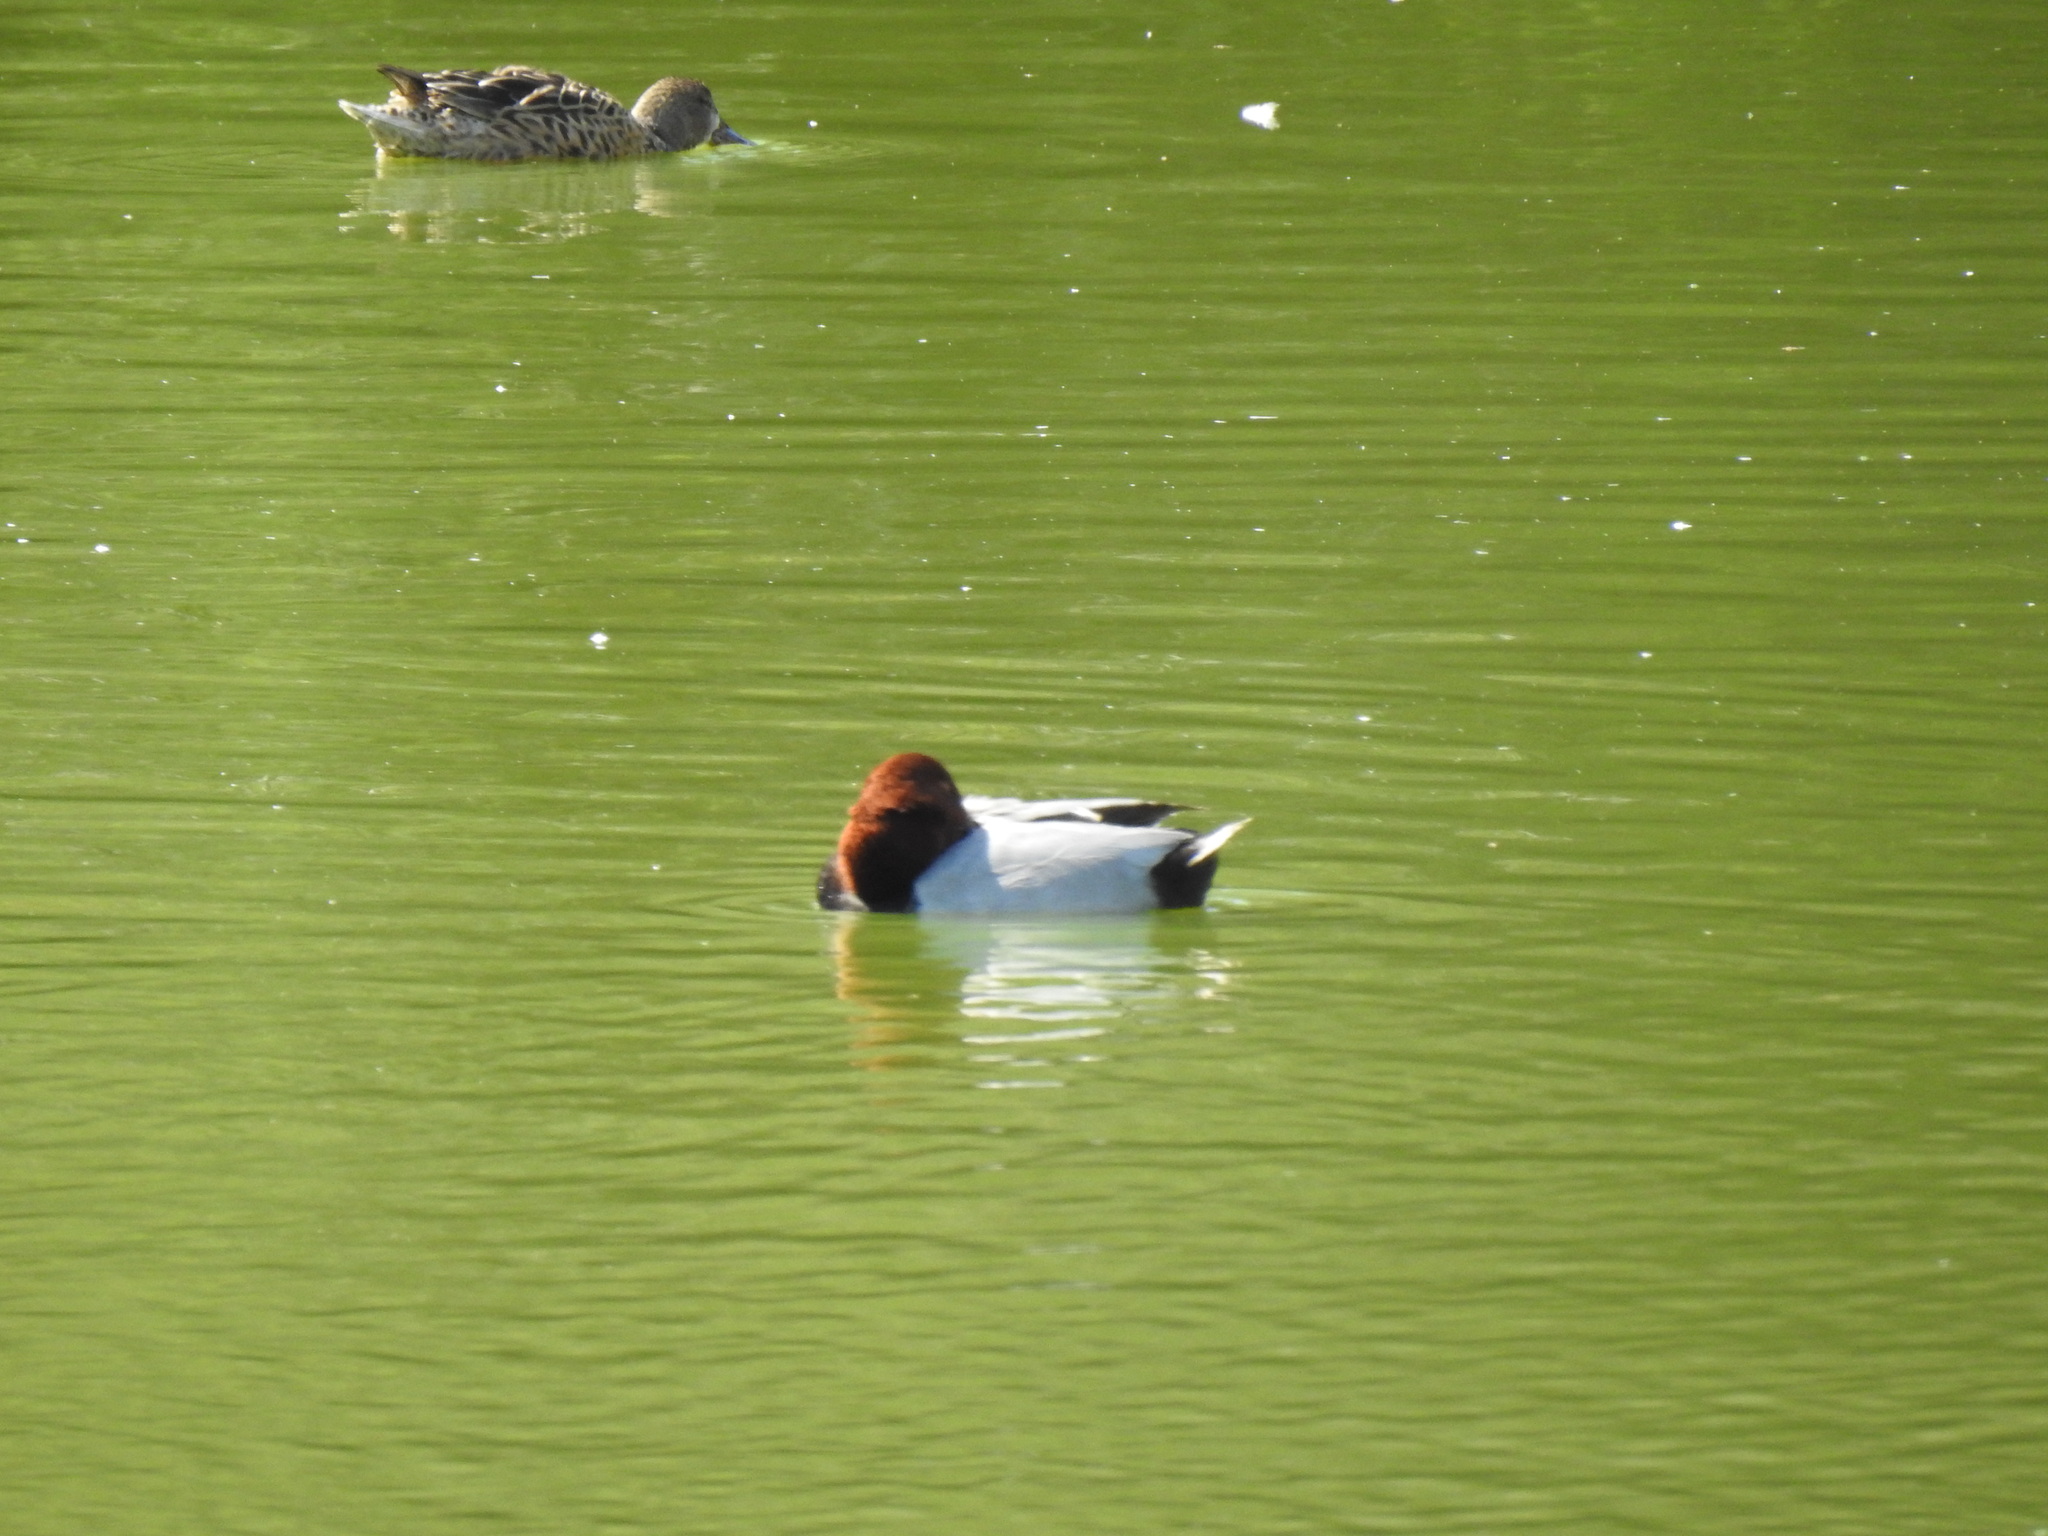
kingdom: Animalia
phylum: Chordata
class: Aves
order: Anseriformes
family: Anatidae
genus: Aythya
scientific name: Aythya ferina
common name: Common pochard
